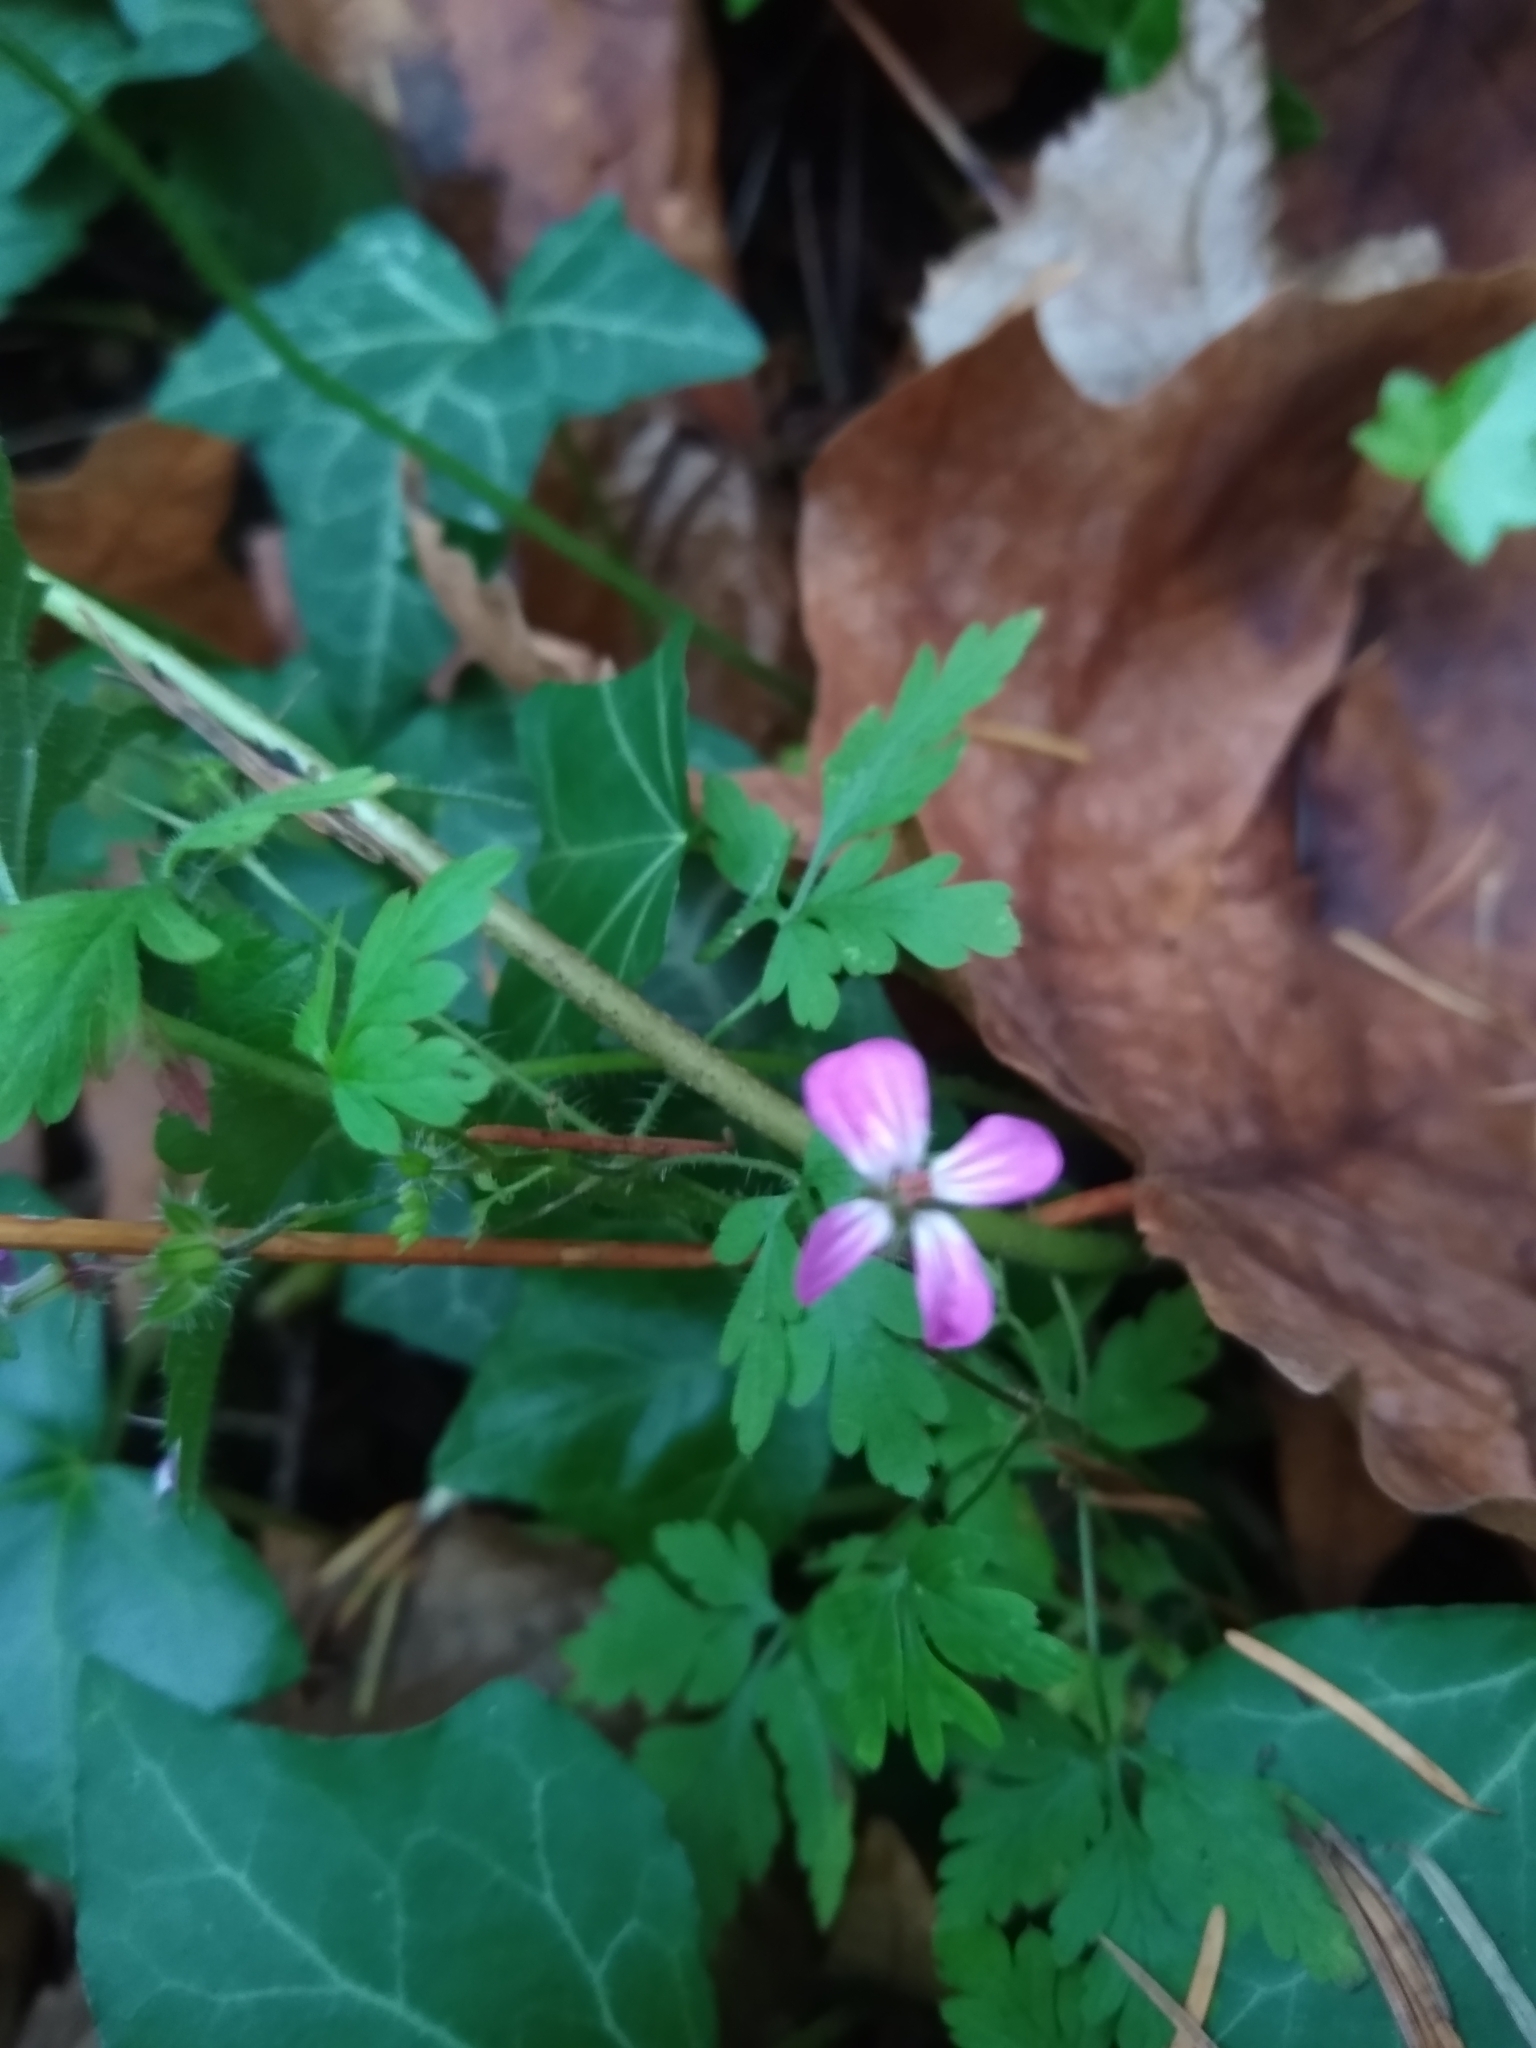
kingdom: Plantae
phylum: Tracheophyta
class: Magnoliopsida
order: Geraniales
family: Geraniaceae
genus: Geranium
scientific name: Geranium robertianum
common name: Herb-robert
